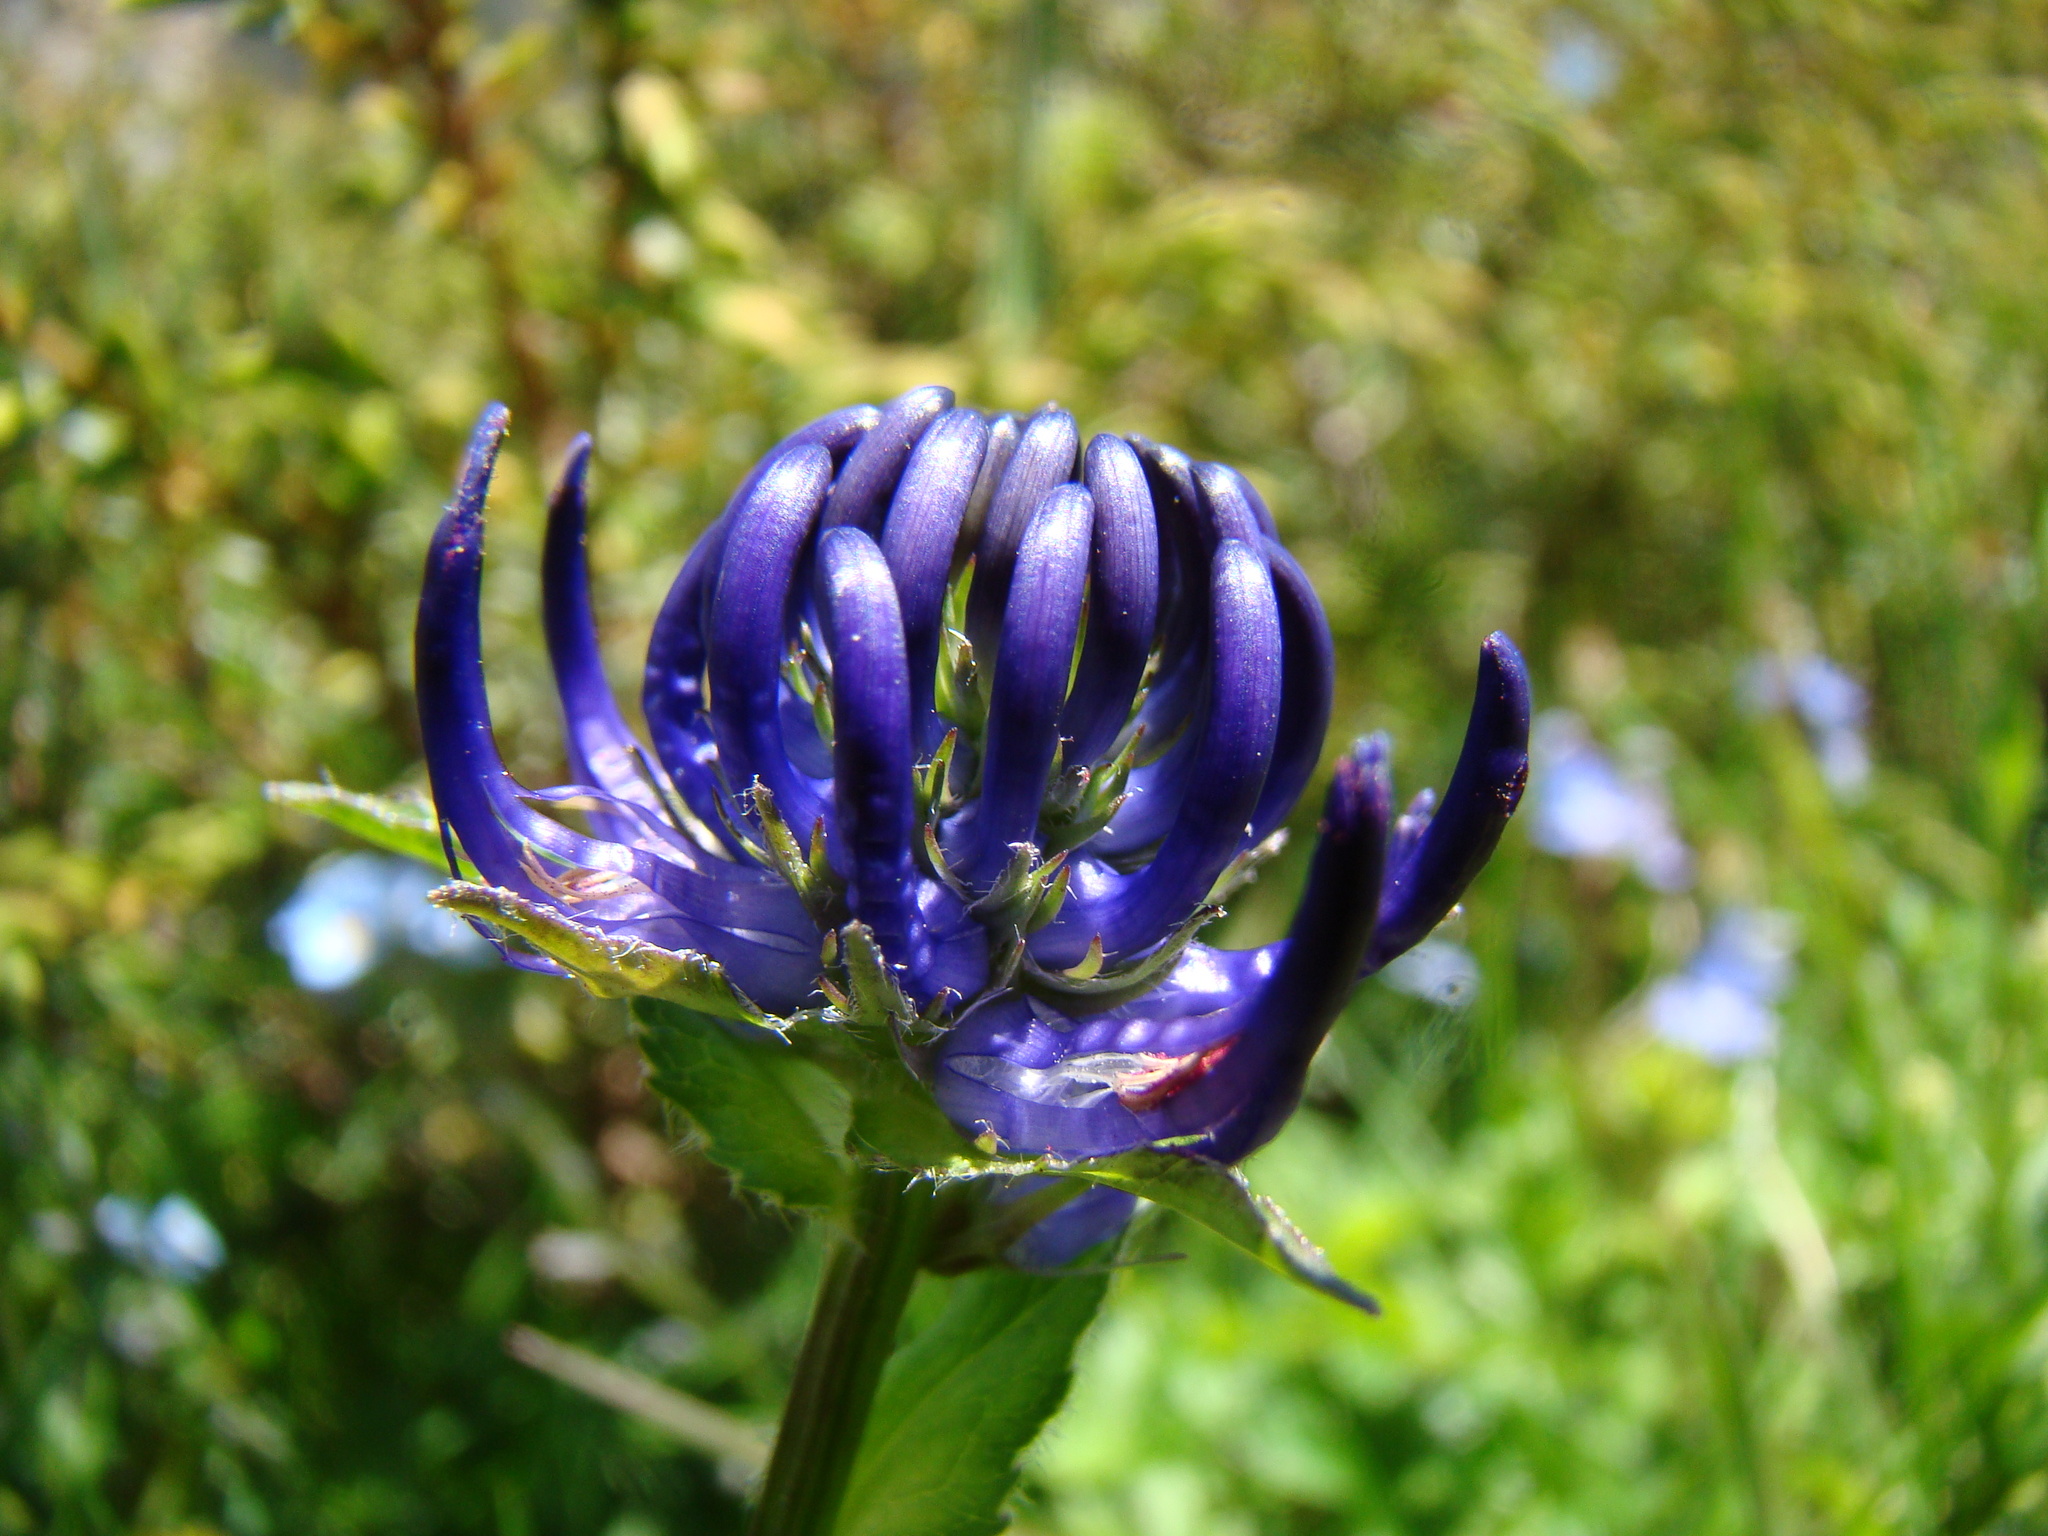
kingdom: Plantae
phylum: Tracheophyta
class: Magnoliopsida
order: Asterales
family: Campanulaceae
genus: Phyteuma
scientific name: Phyteuma orbiculare
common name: Round-headed rampion
